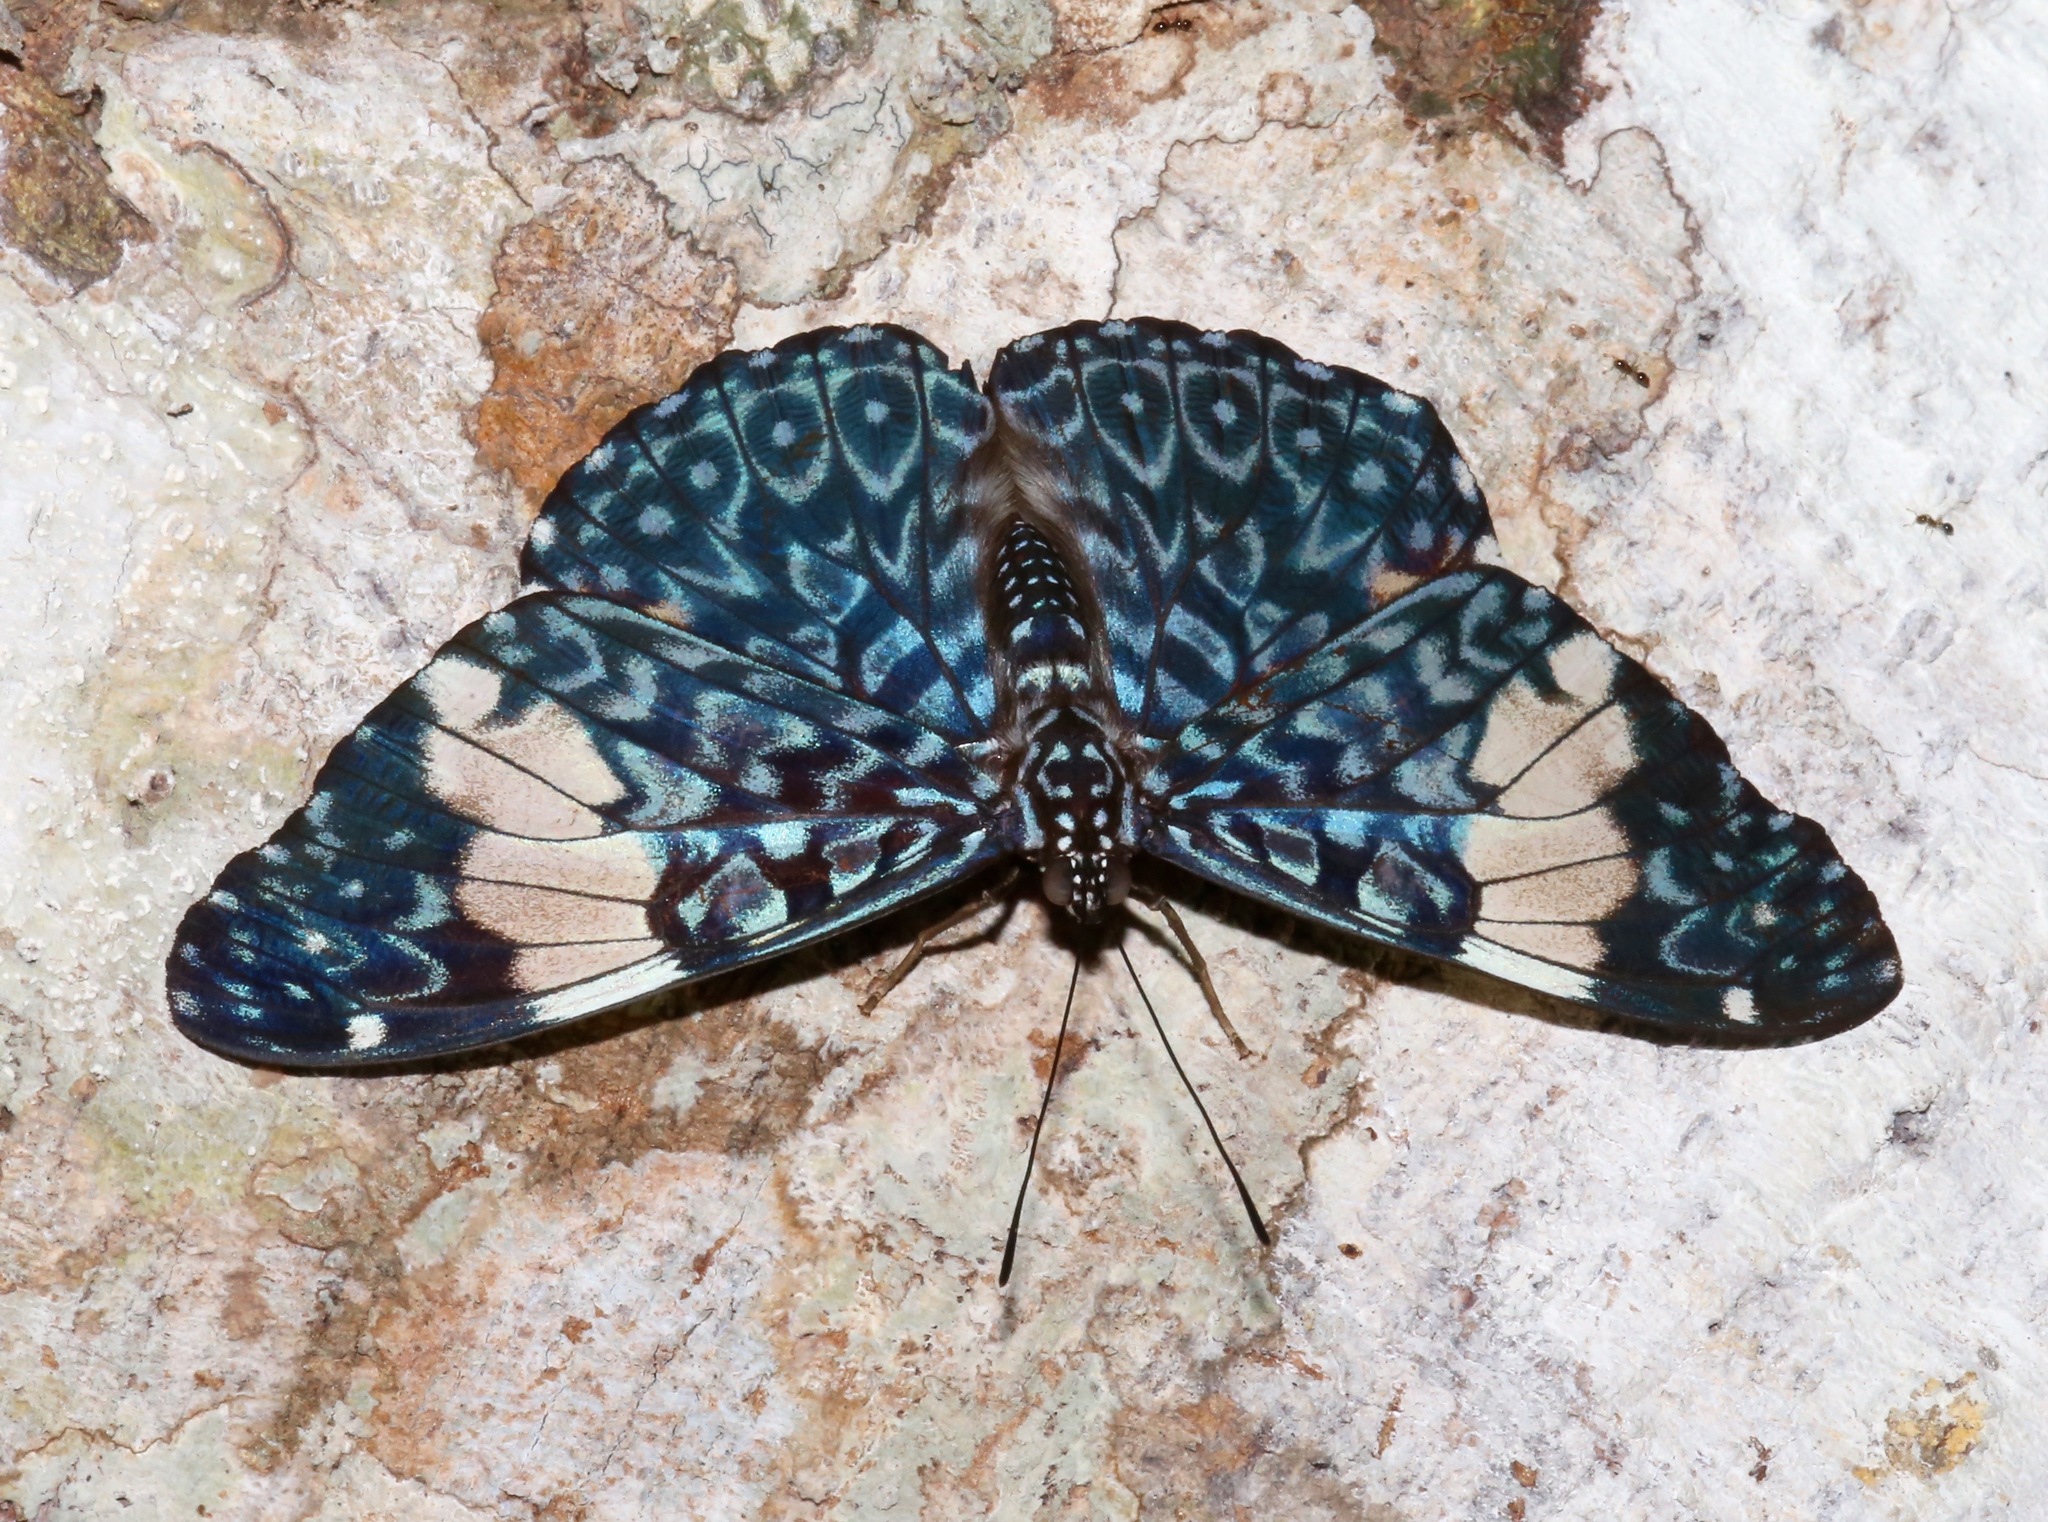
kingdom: Animalia
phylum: Arthropoda
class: Insecta
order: Lepidoptera
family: Nymphalidae
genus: Hamadryas
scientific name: Hamadryas amphinome
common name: Red cracker
